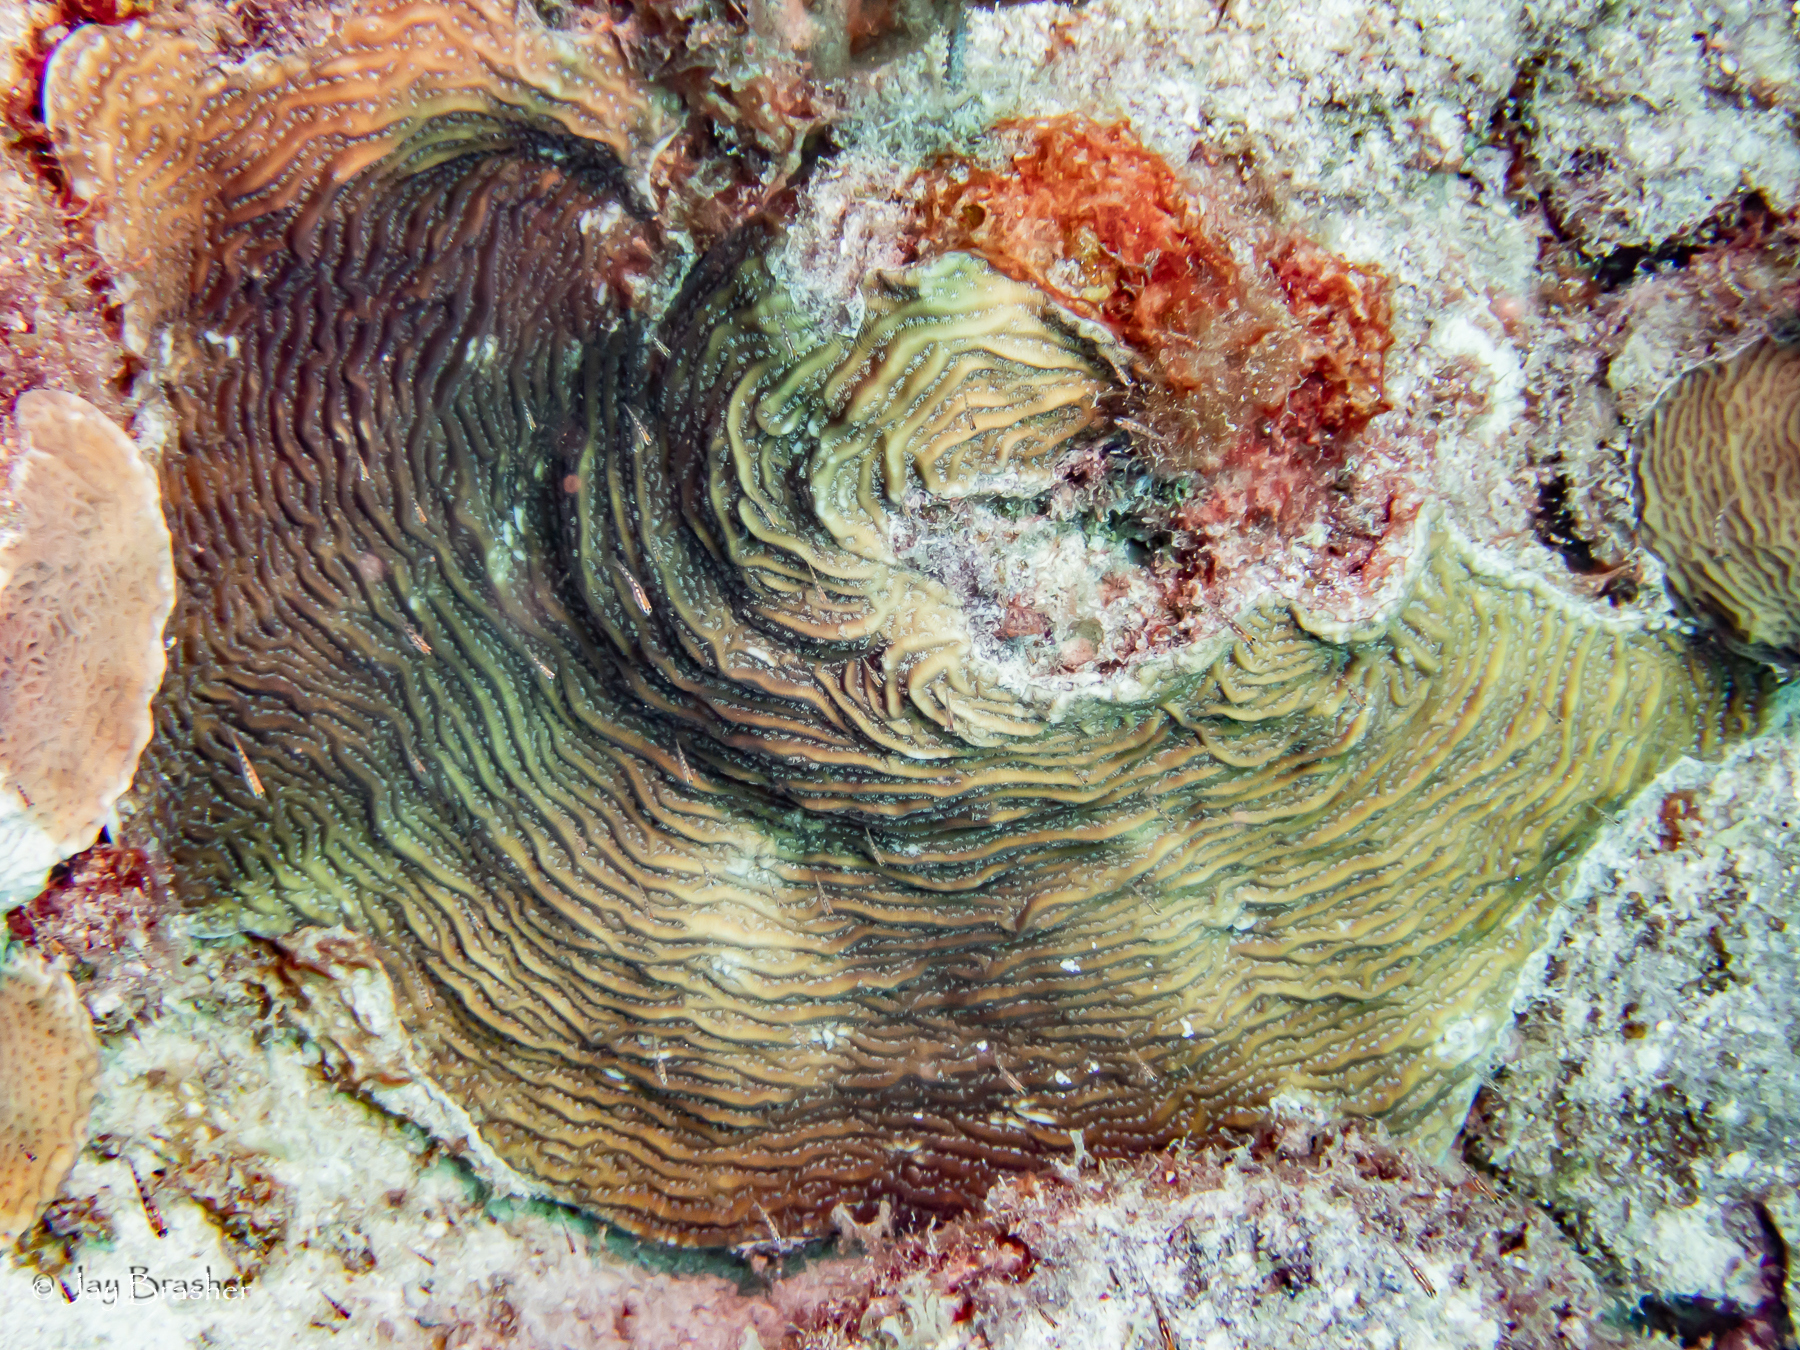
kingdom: Animalia
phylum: Cnidaria
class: Anthozoa
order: Scleractinia
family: Agariciidae
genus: Agaricia
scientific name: Agaricia lamarcki
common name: Lamarck's sheet coral
